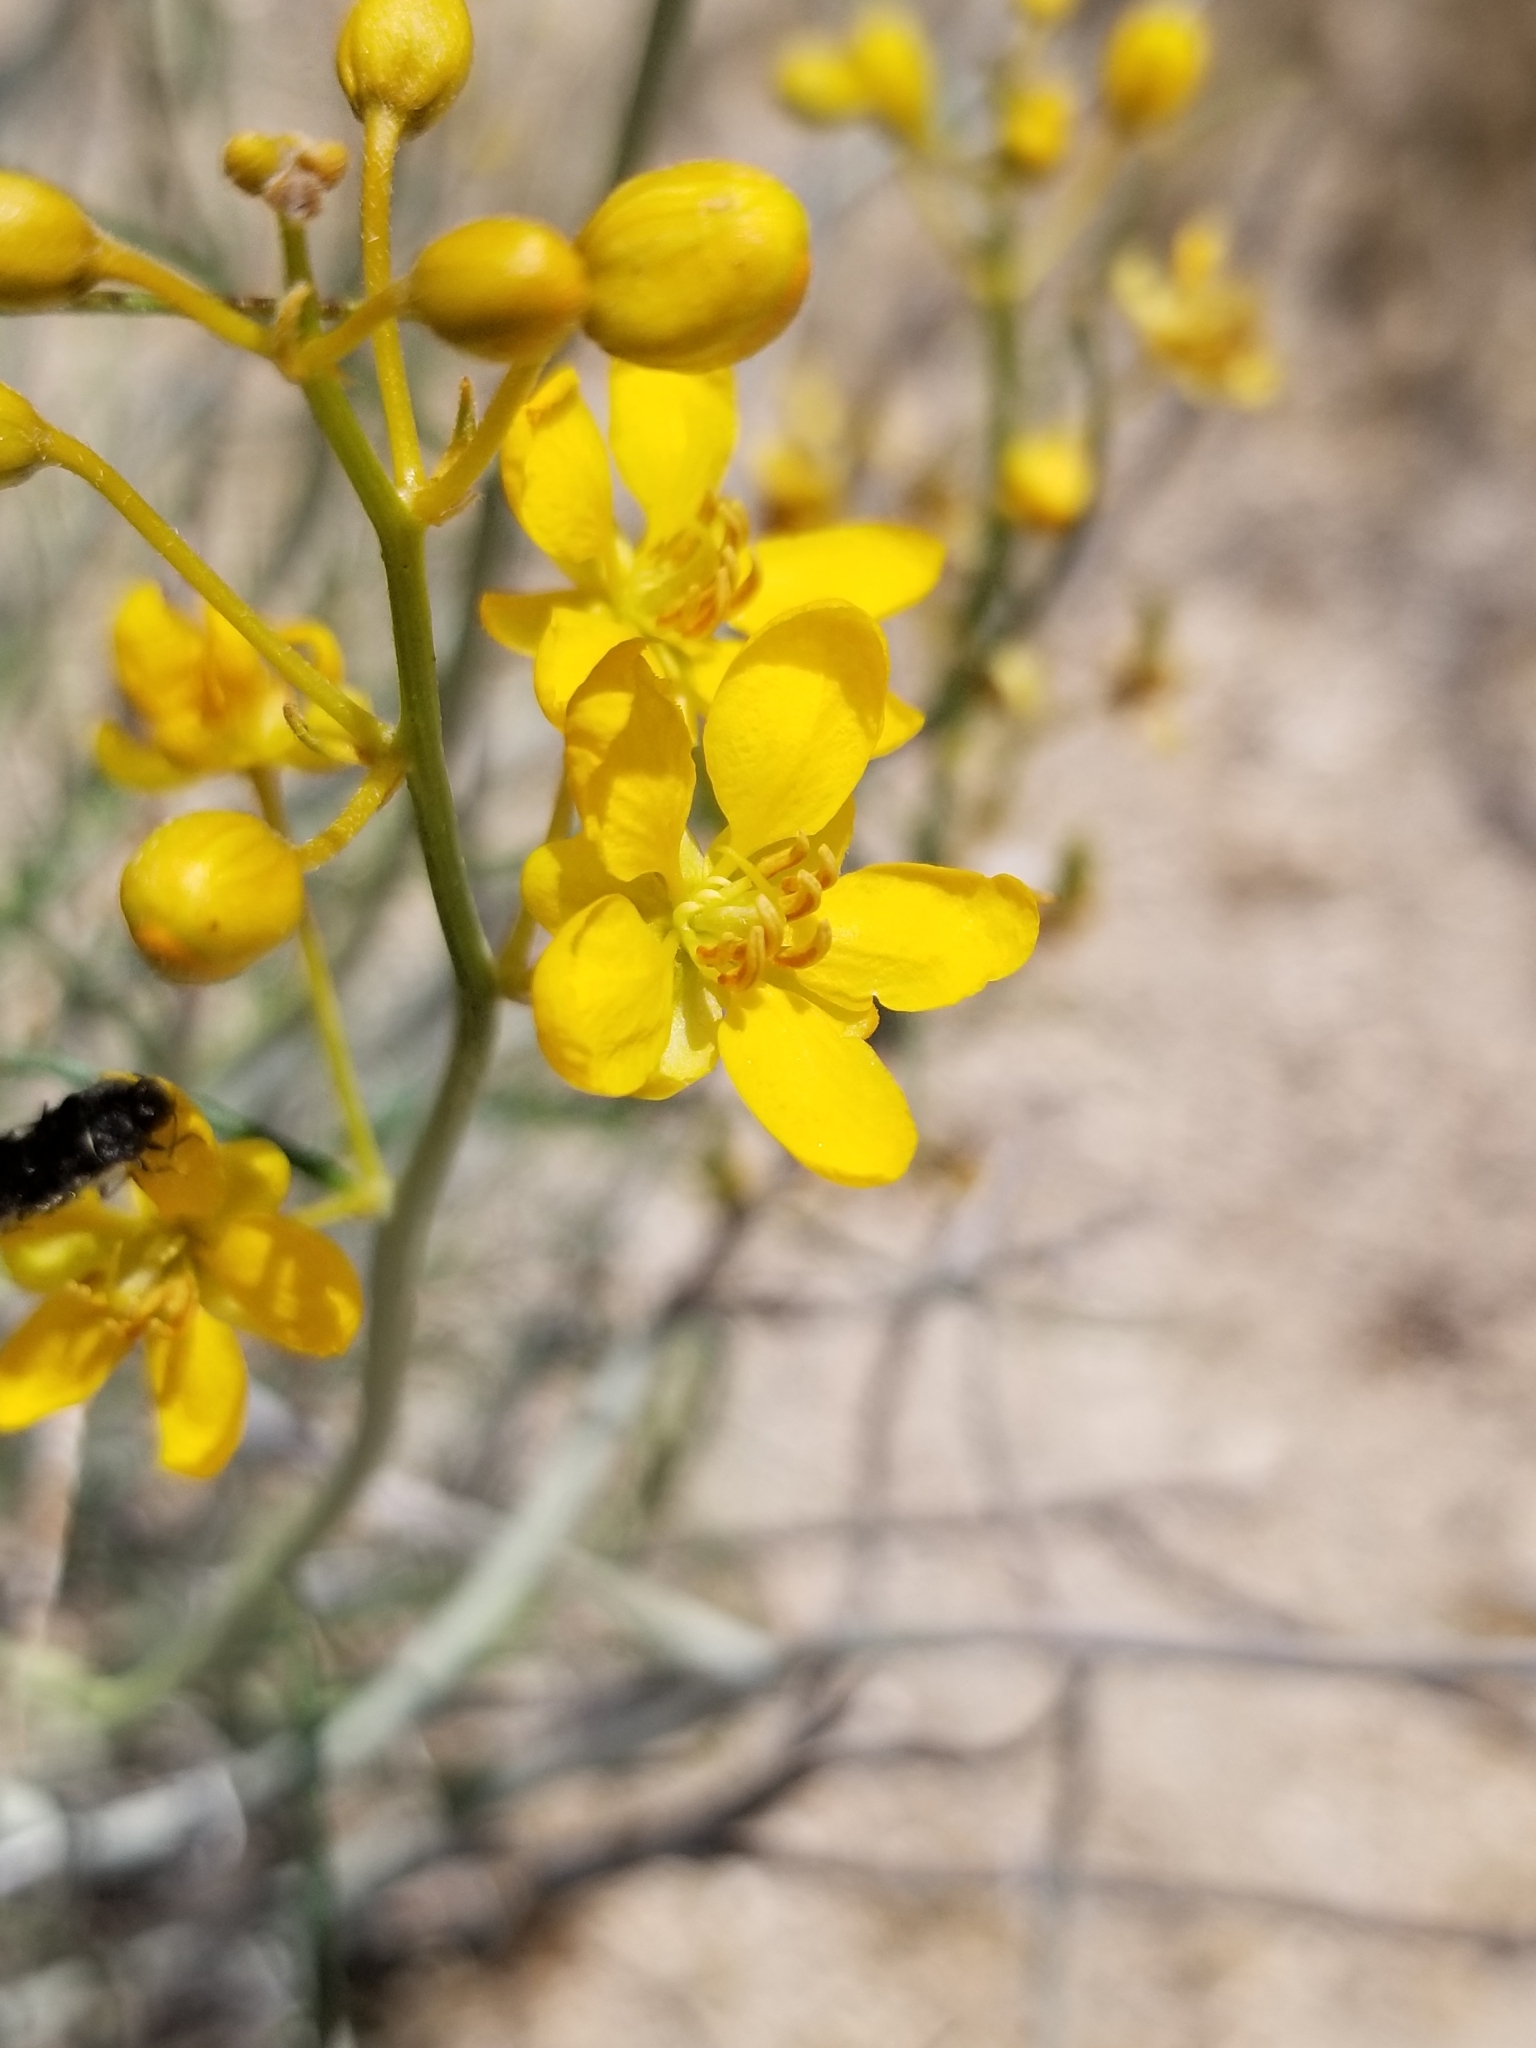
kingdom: Plantae
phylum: Tracheophyta
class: Magnoliopsida
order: Fabales
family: Fabaceae
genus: Senna
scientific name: Senna armata
